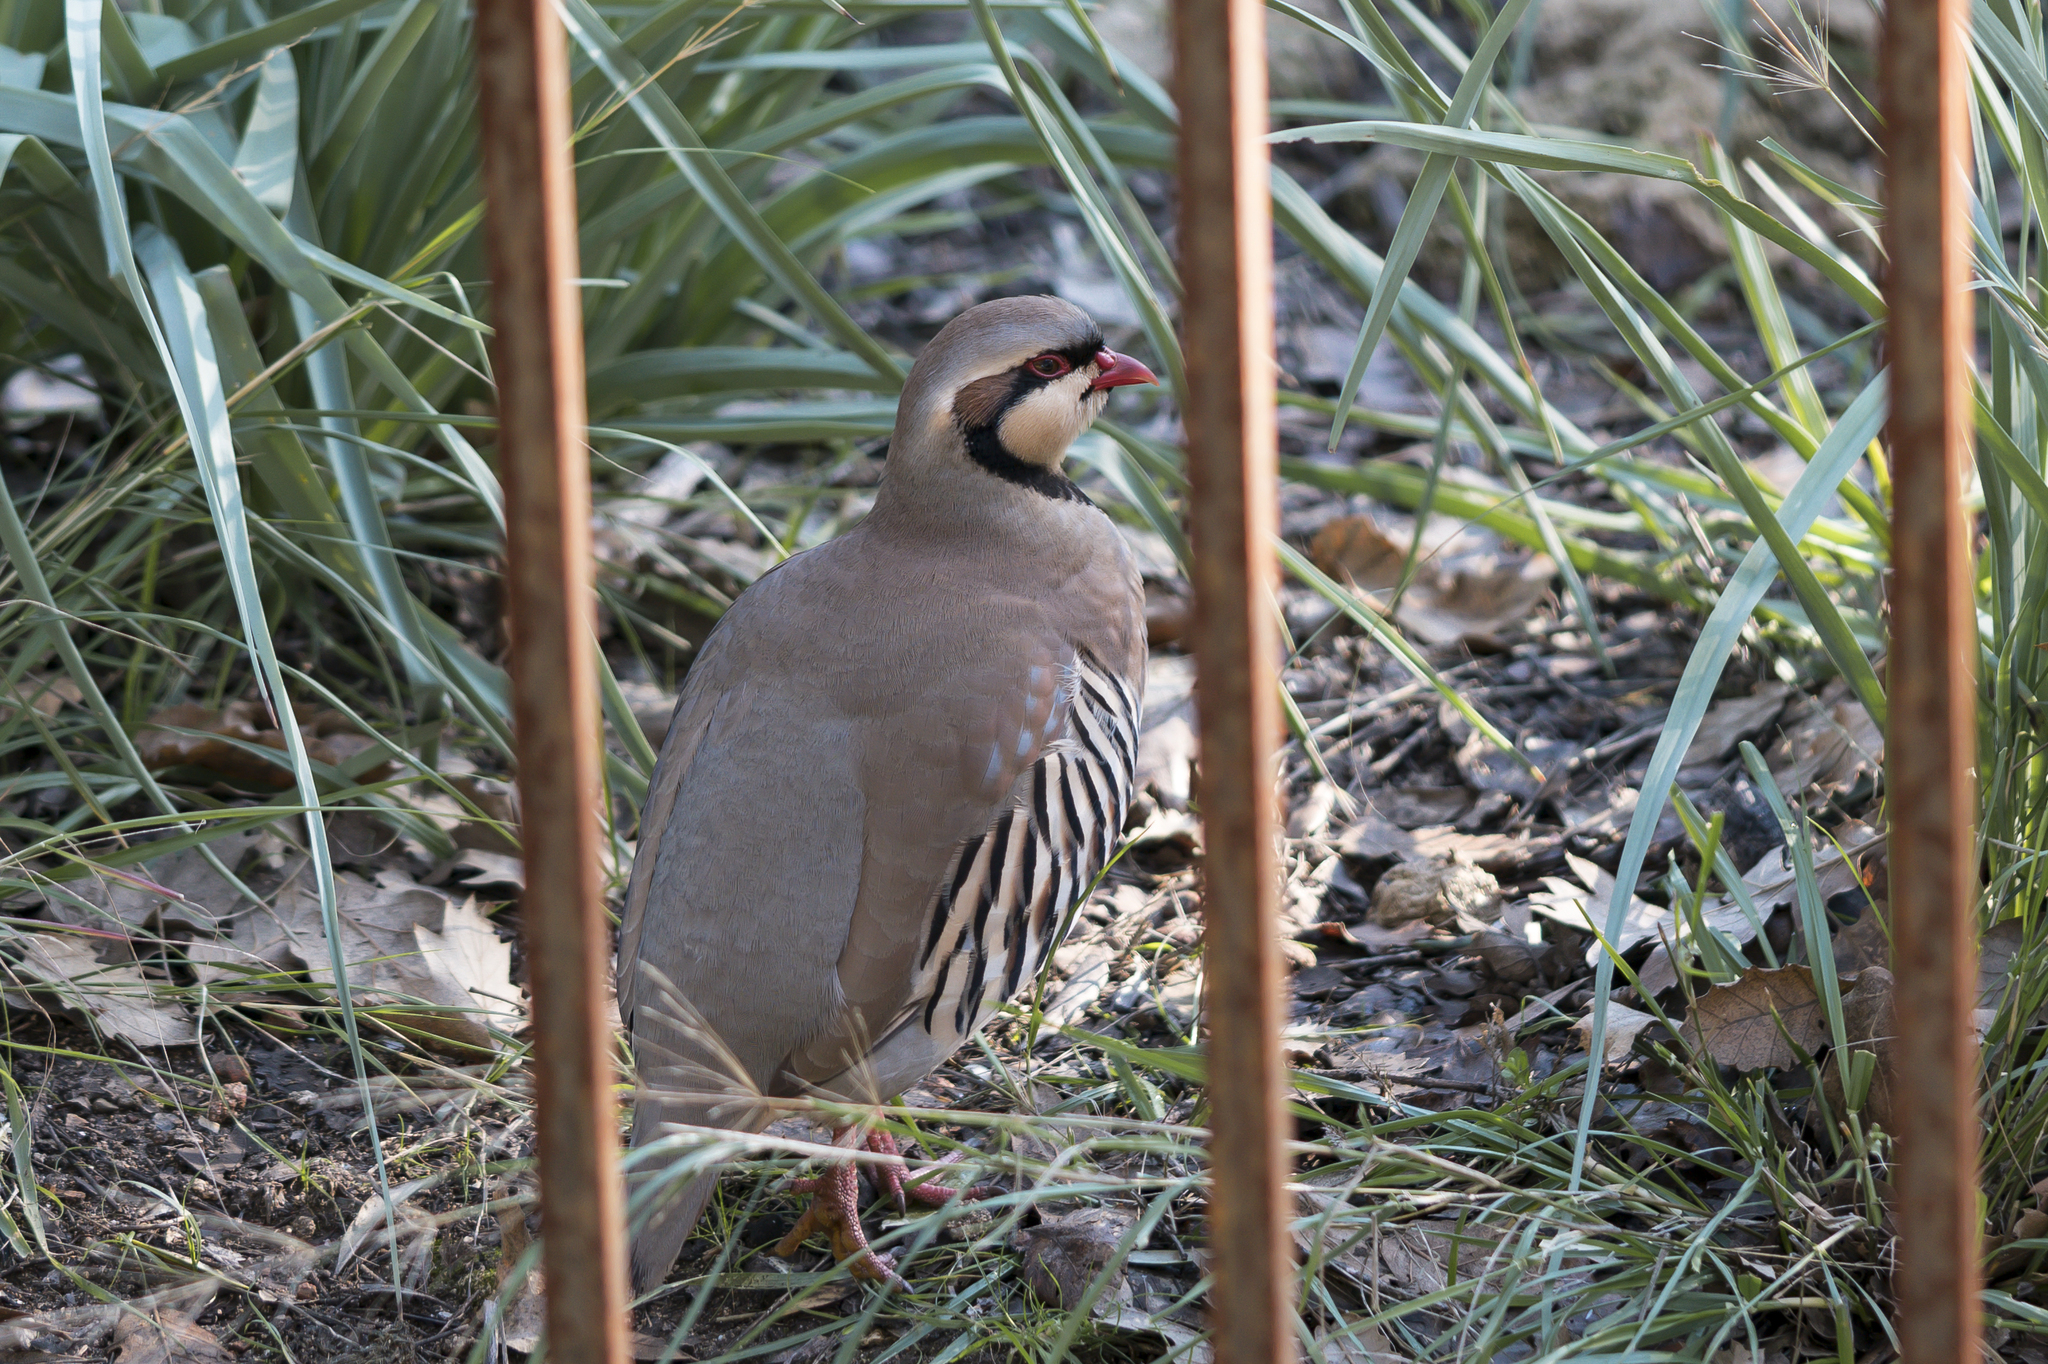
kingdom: Animalia
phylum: Chordata
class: Aves
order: Galliformes
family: Phasianidae
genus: Alectoris
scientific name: Alectoris chukar
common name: Chukar
